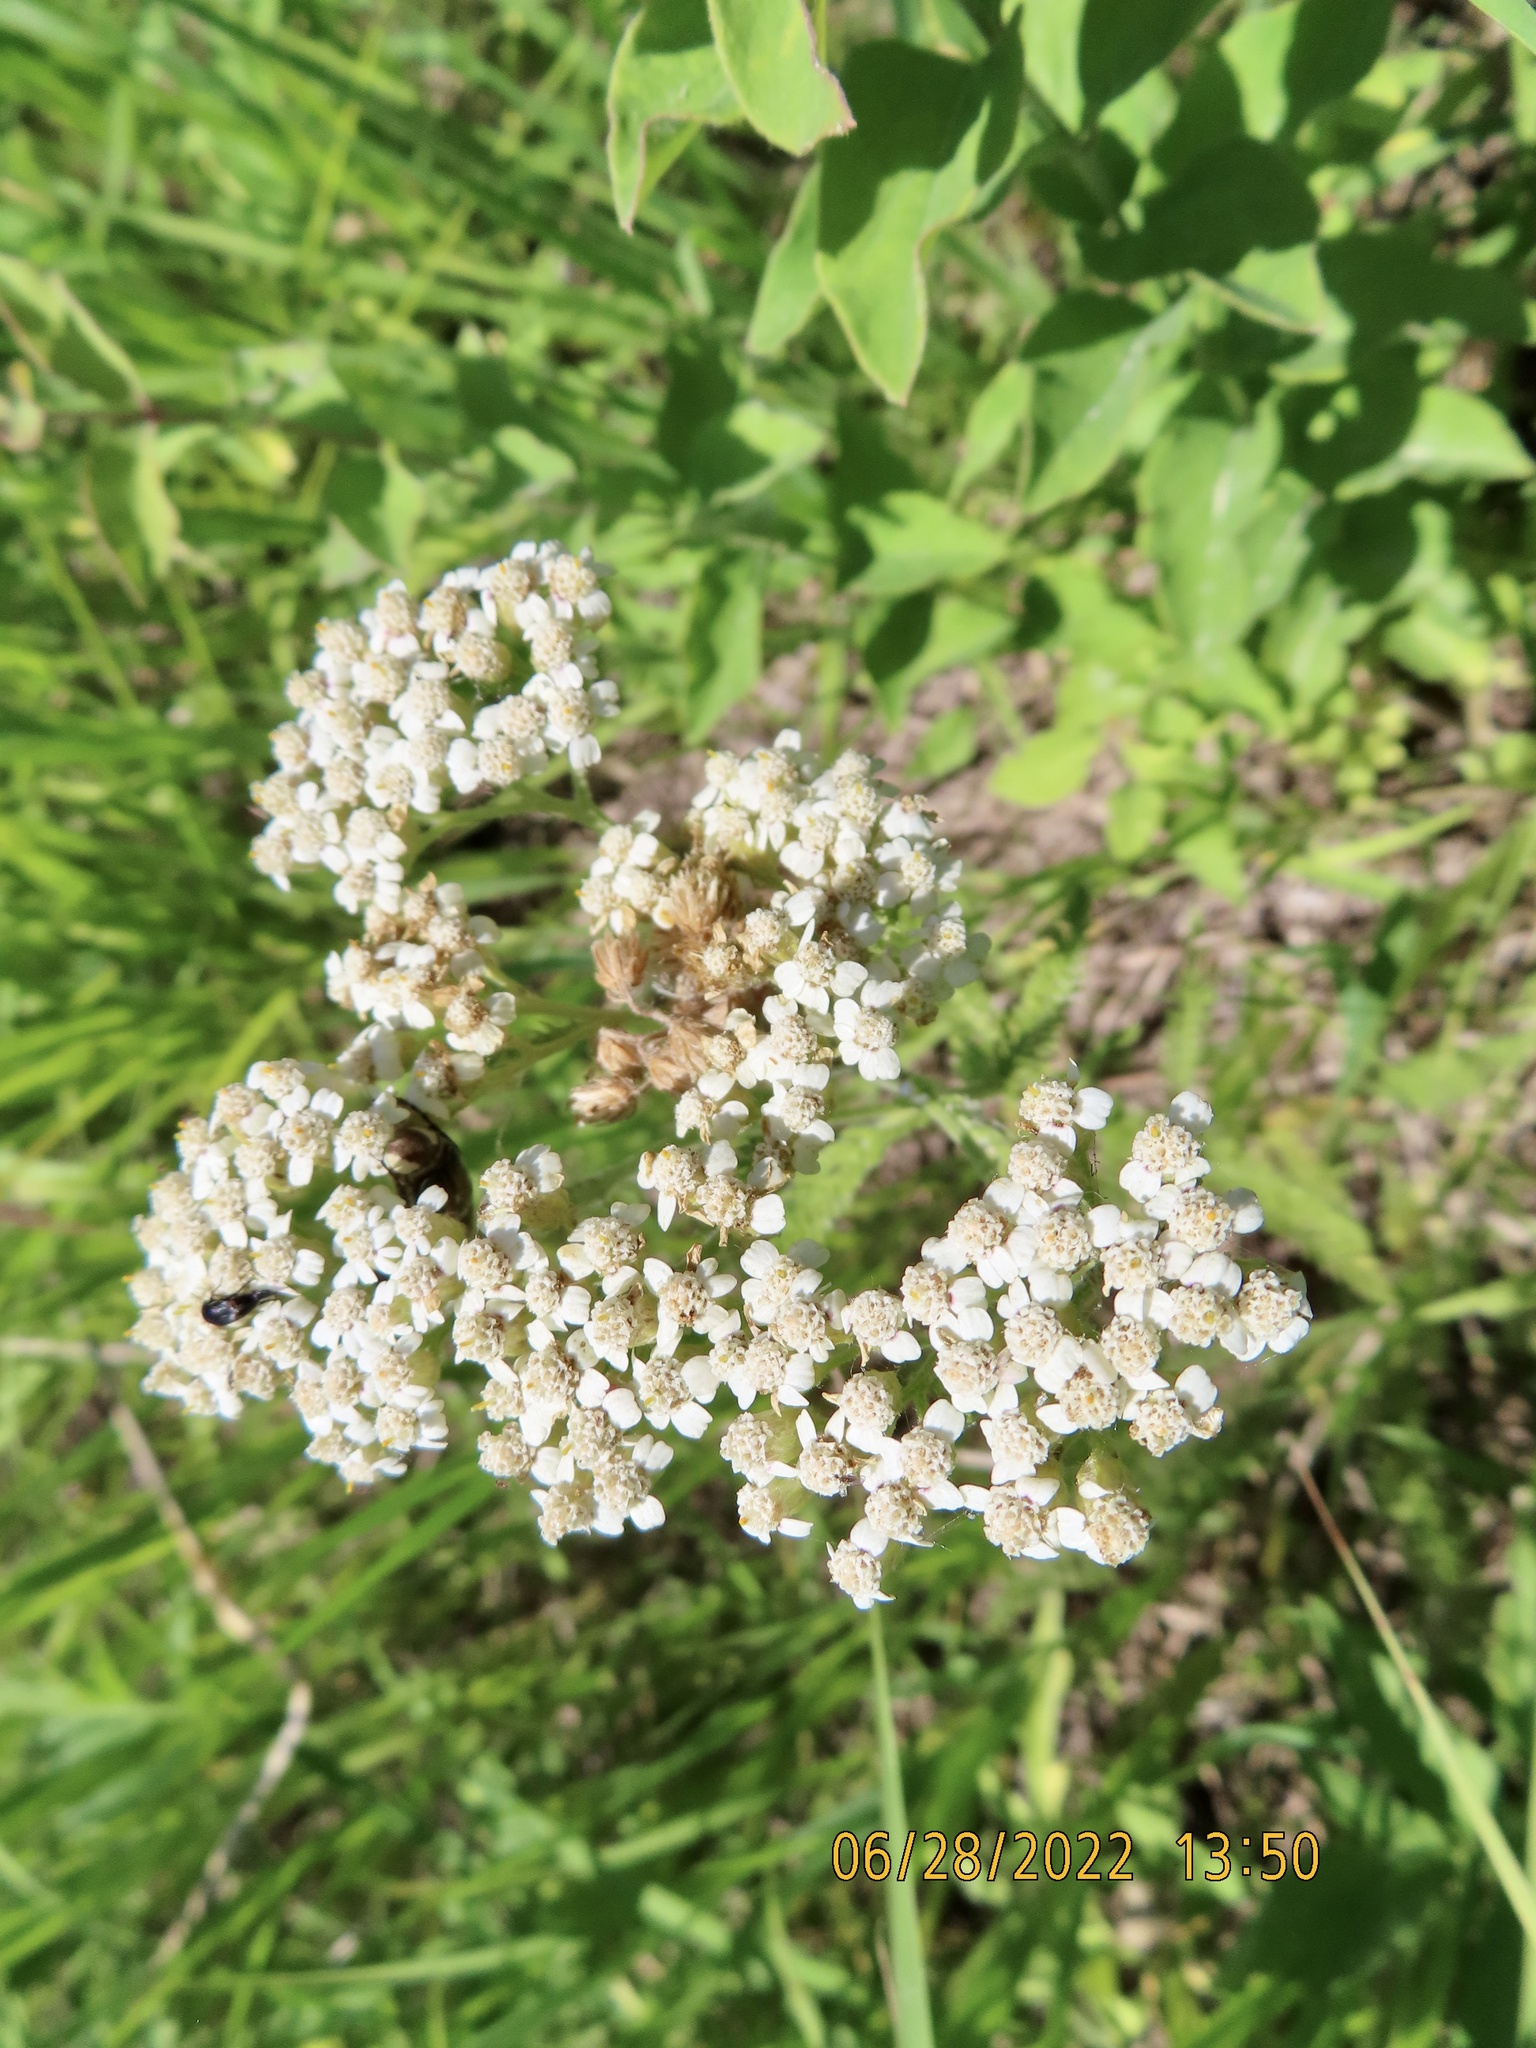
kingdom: Plantae
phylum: Tracheophyta
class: Magnoliopsida
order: Asterales
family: Asteraceae
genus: Achillea
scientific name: Achillea millefolium
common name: Yarrow
